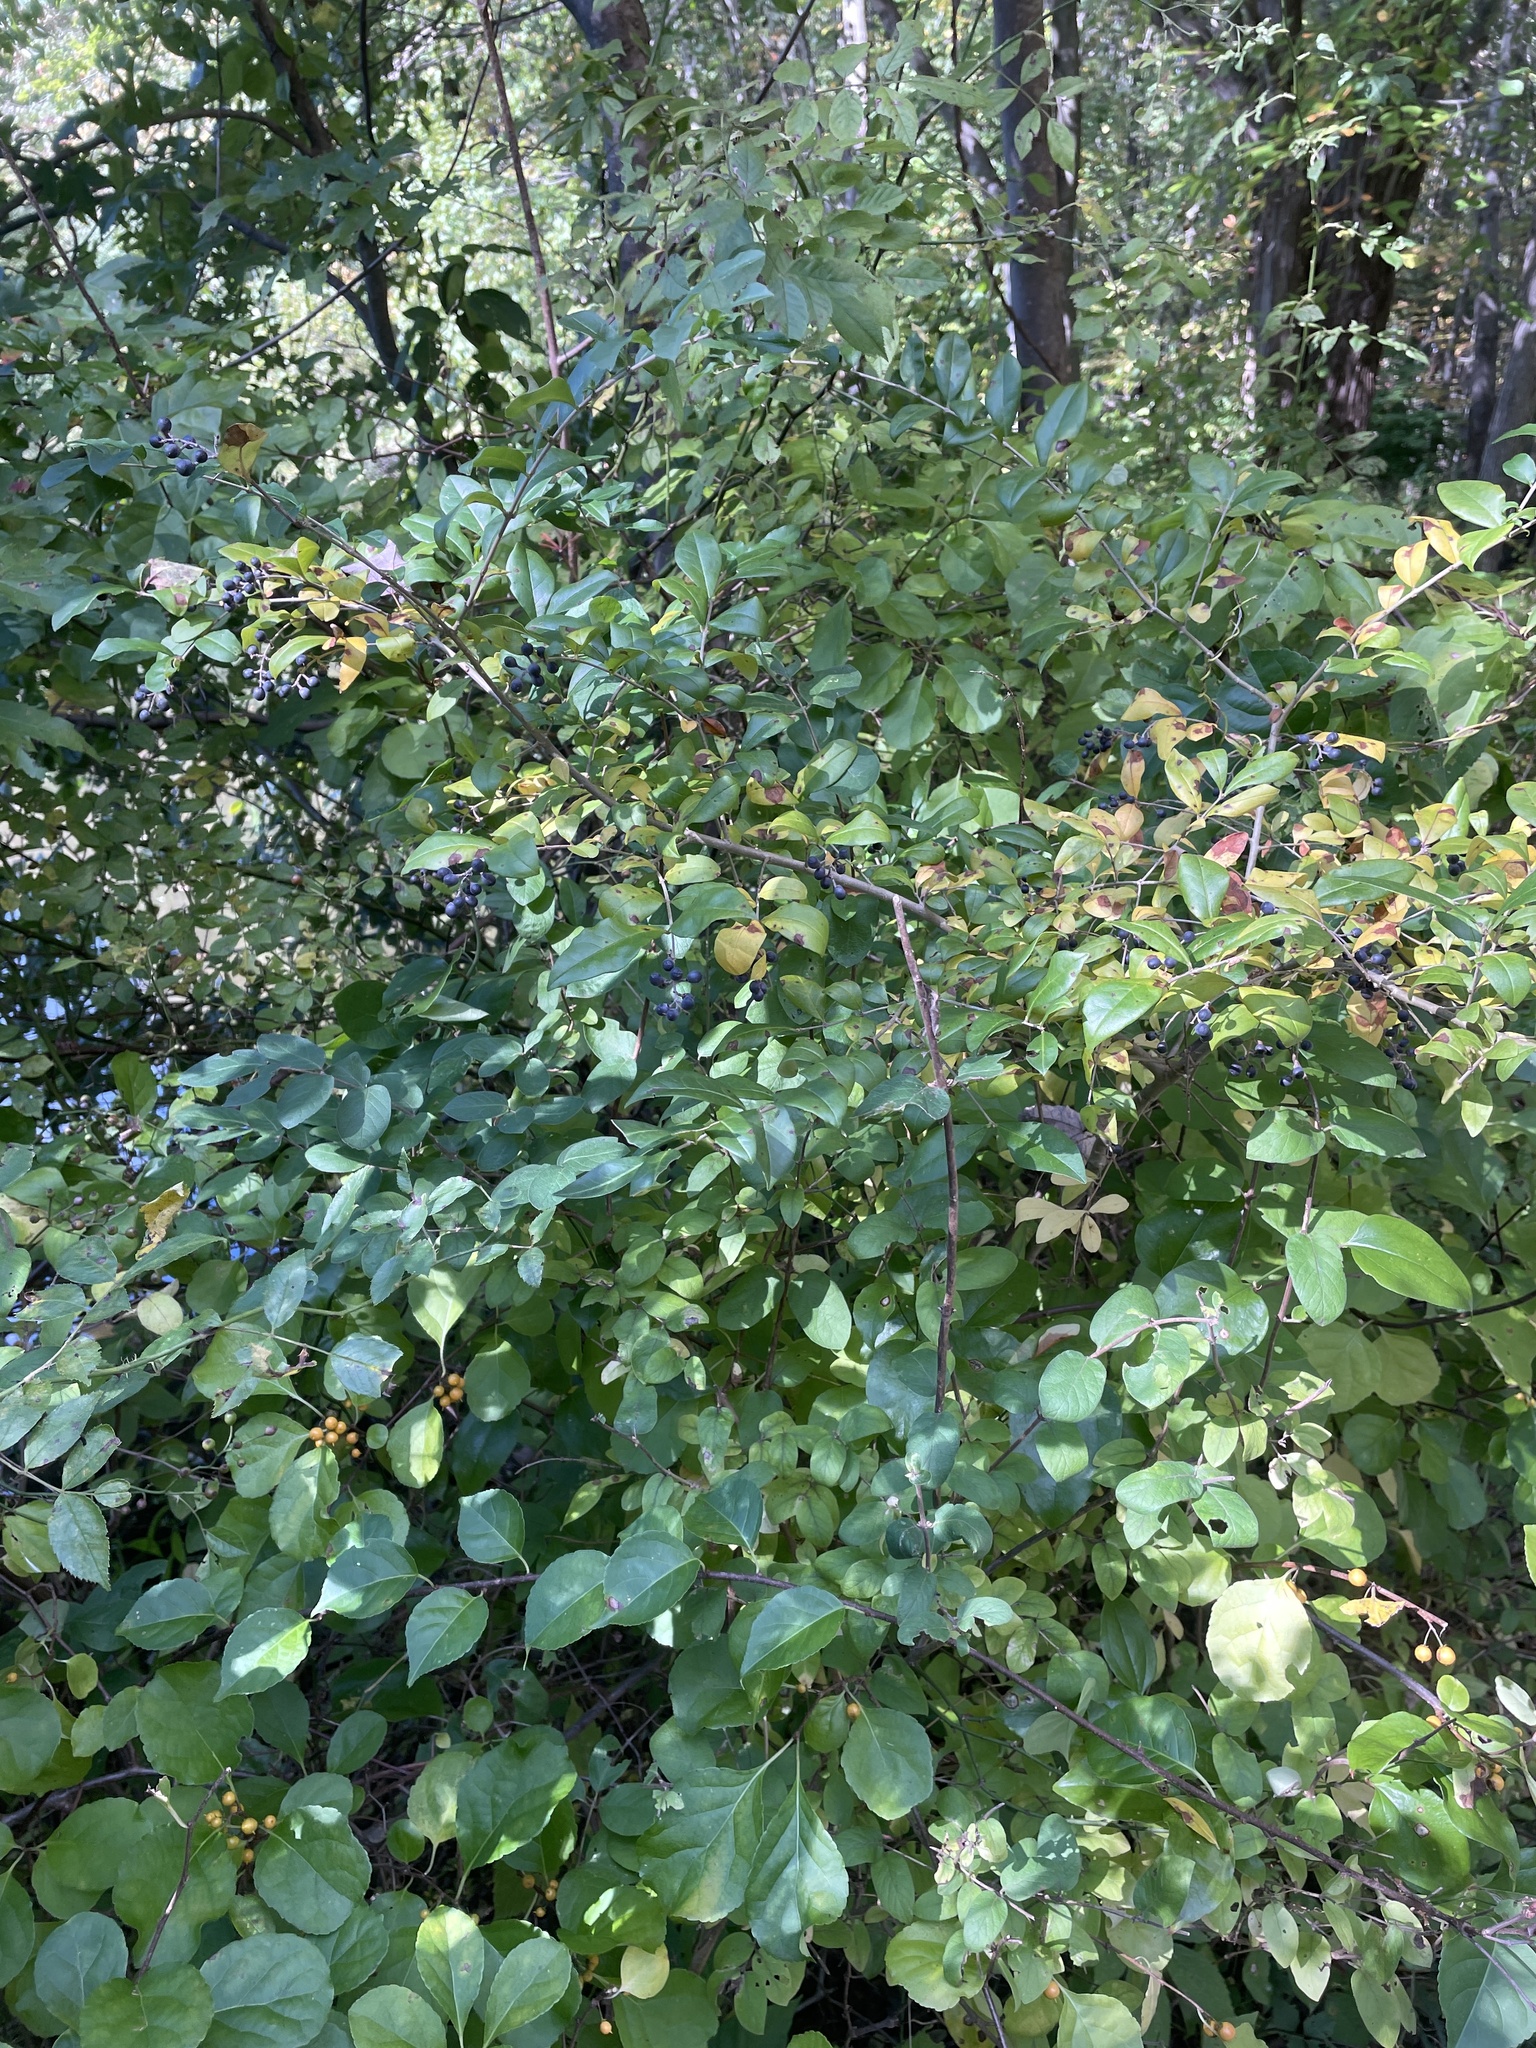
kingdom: Plantae
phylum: Tracheophyta
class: Magnoliopsida
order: Lamiales
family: Oleaceae
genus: Ligustrum
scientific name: Ligustrum obtusifolium
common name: Border privet
